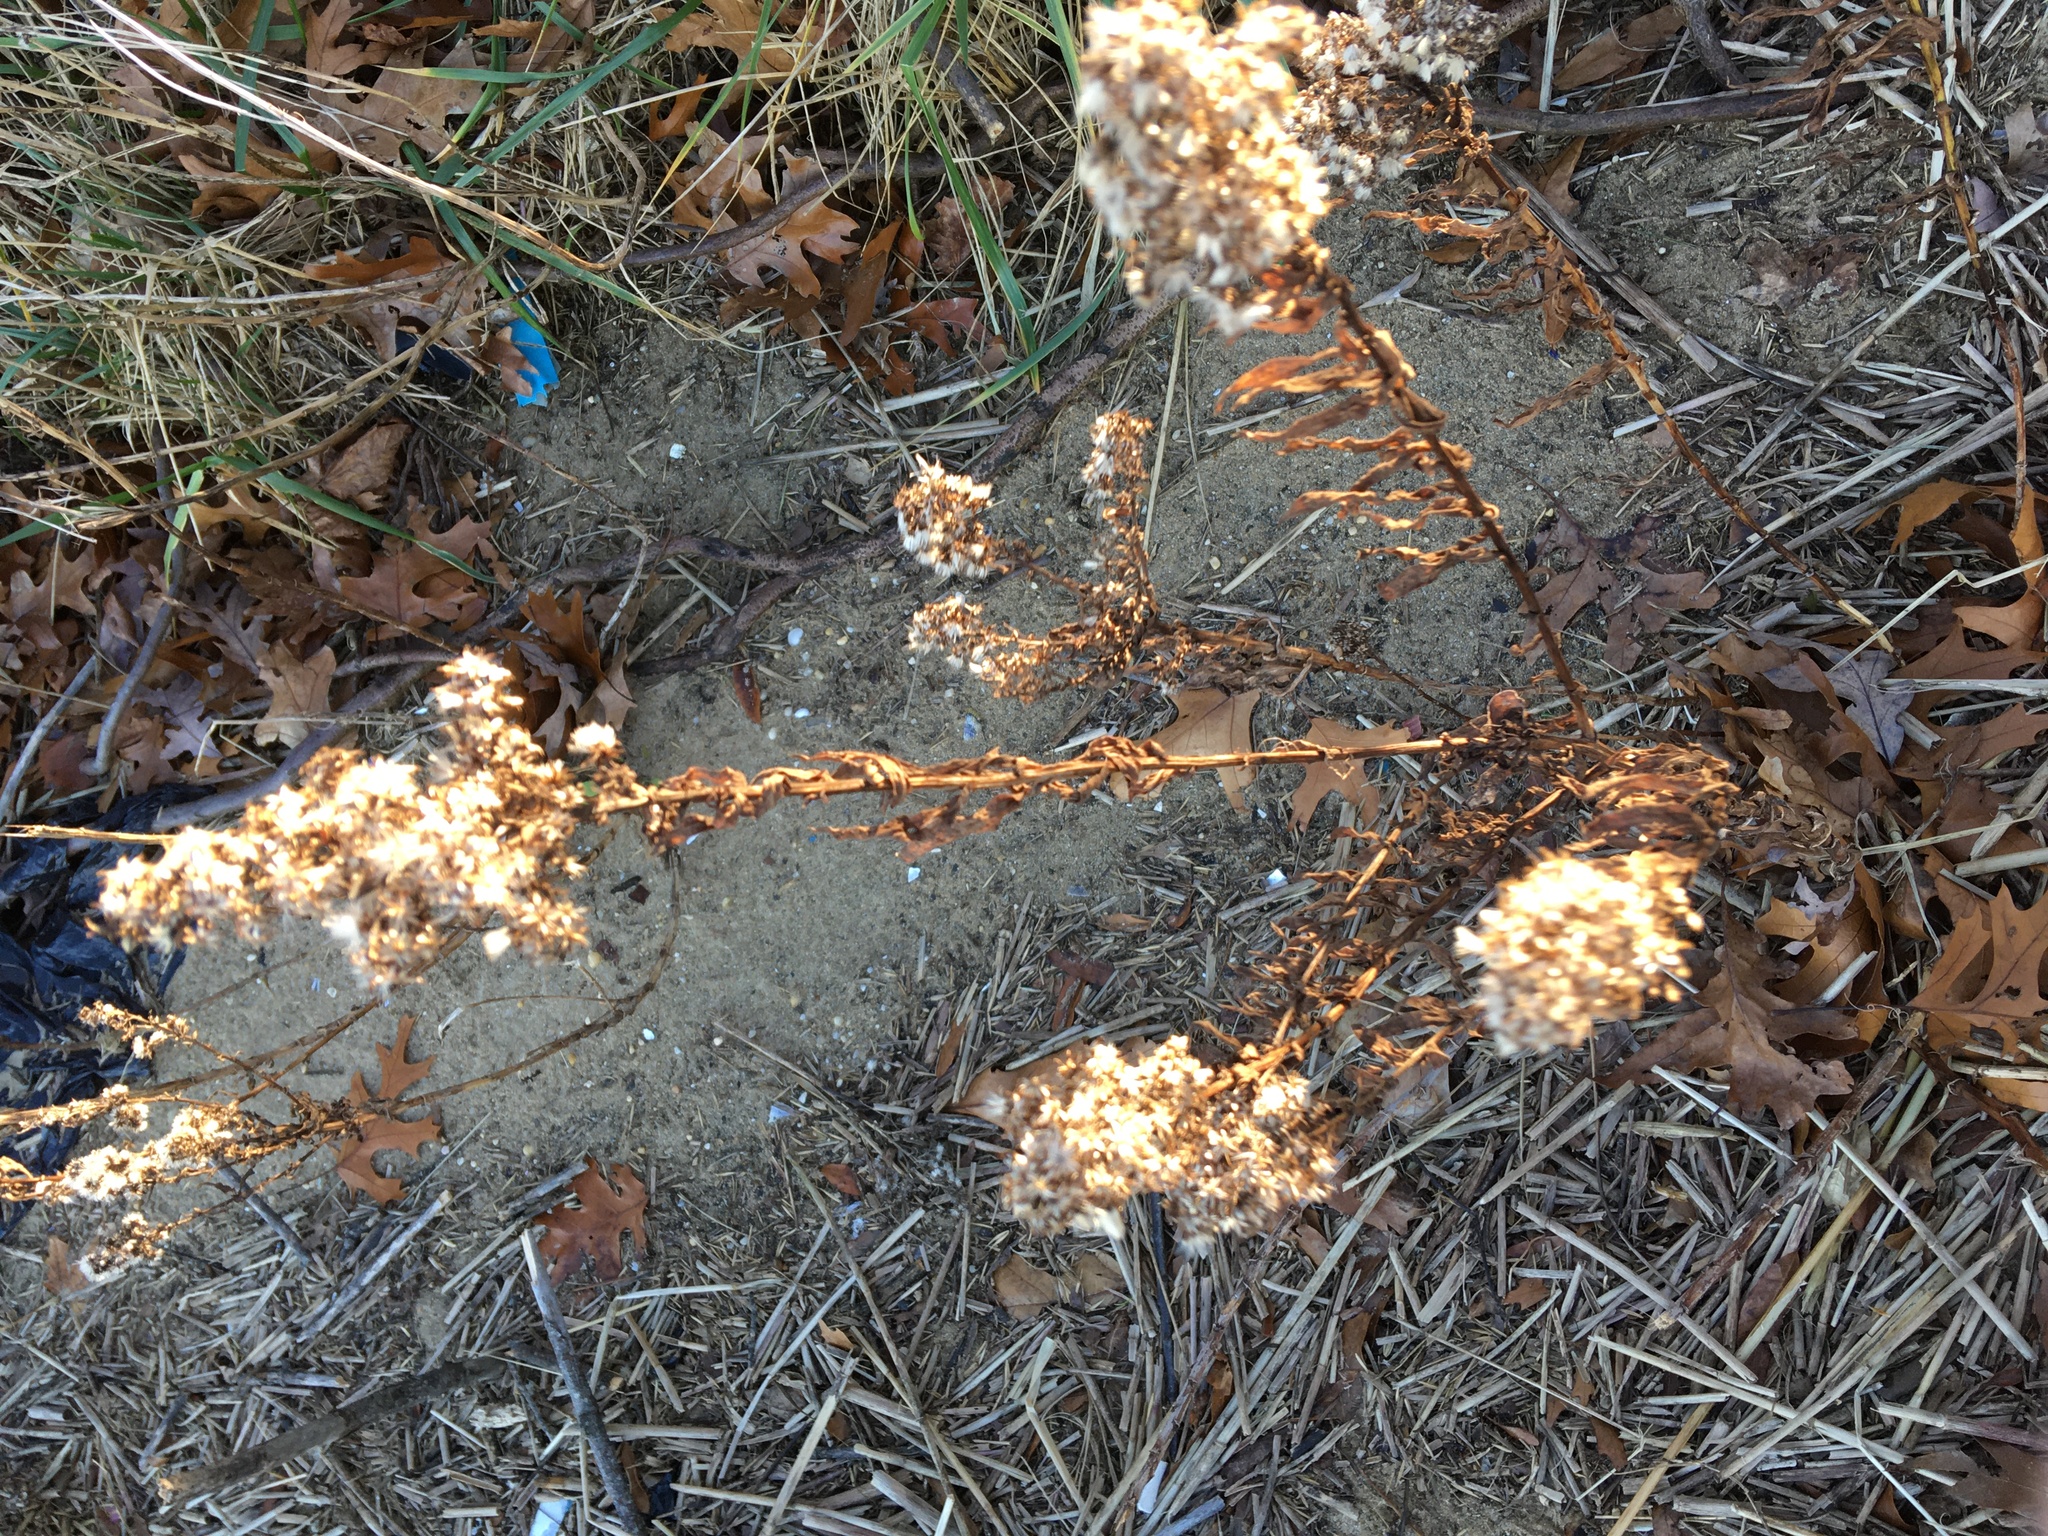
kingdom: Plantae
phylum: Tracheophyta
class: Magnoliopsida
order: Asterales
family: Asteraceae
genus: Solidago
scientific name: Solidago sempervirens
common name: Salt-marsh goldenrod
